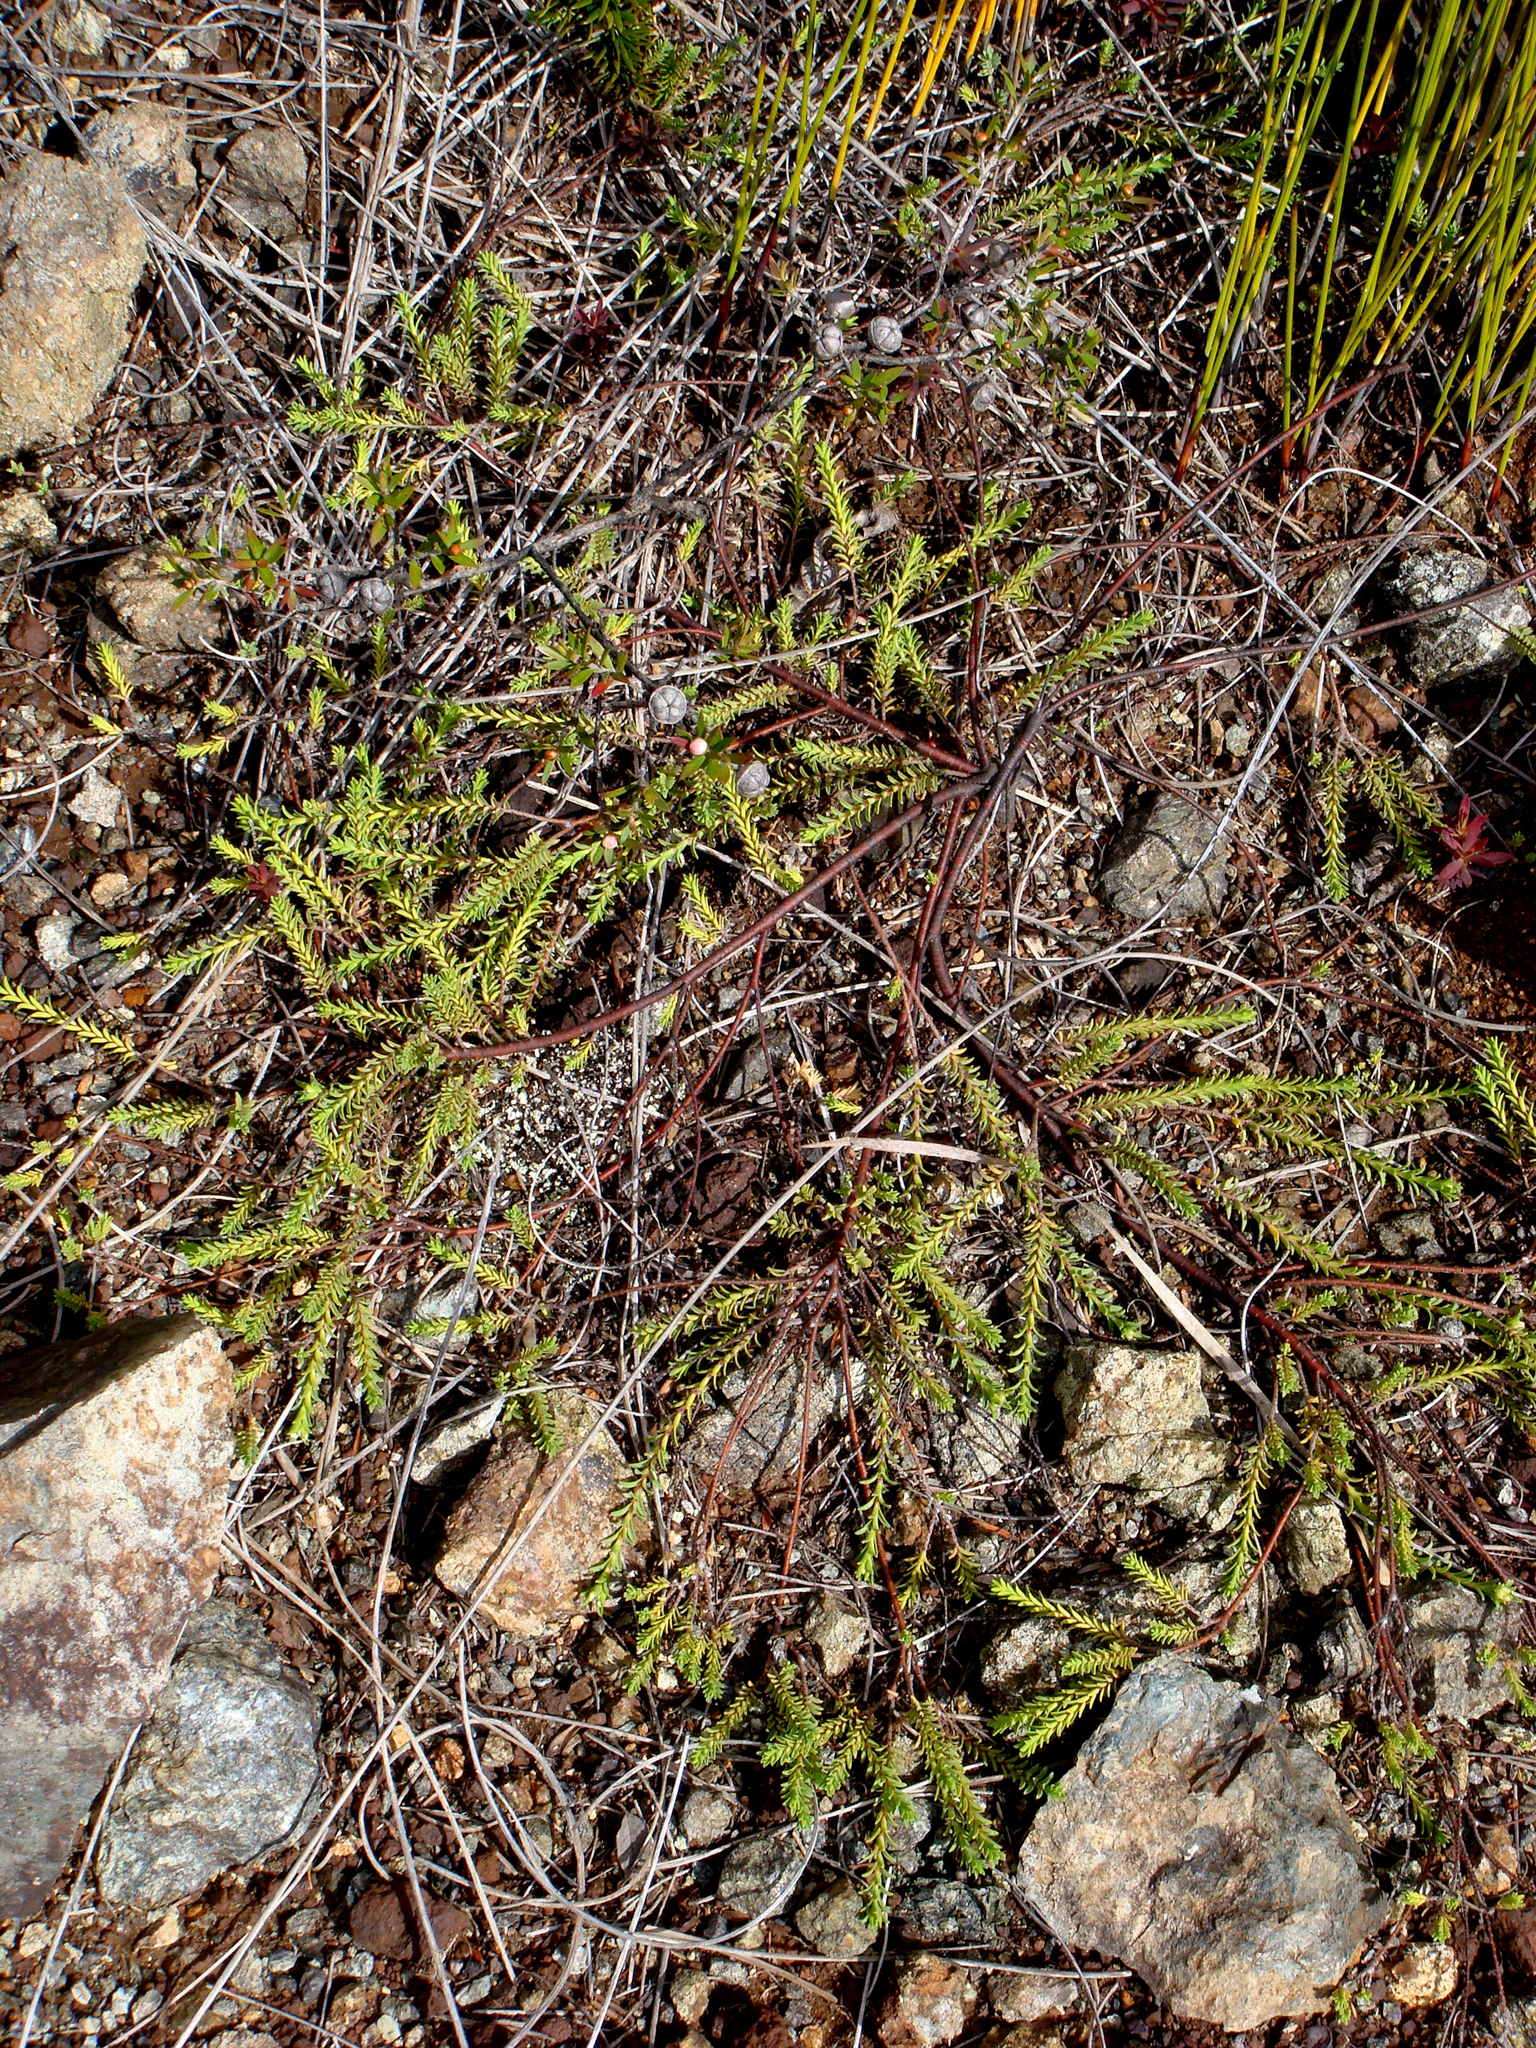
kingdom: Plantae
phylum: Tracheophyta
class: Magnoliopsida
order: Malvales
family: Thymelaeaceae
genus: Pimelea
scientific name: Pimelea xenica
